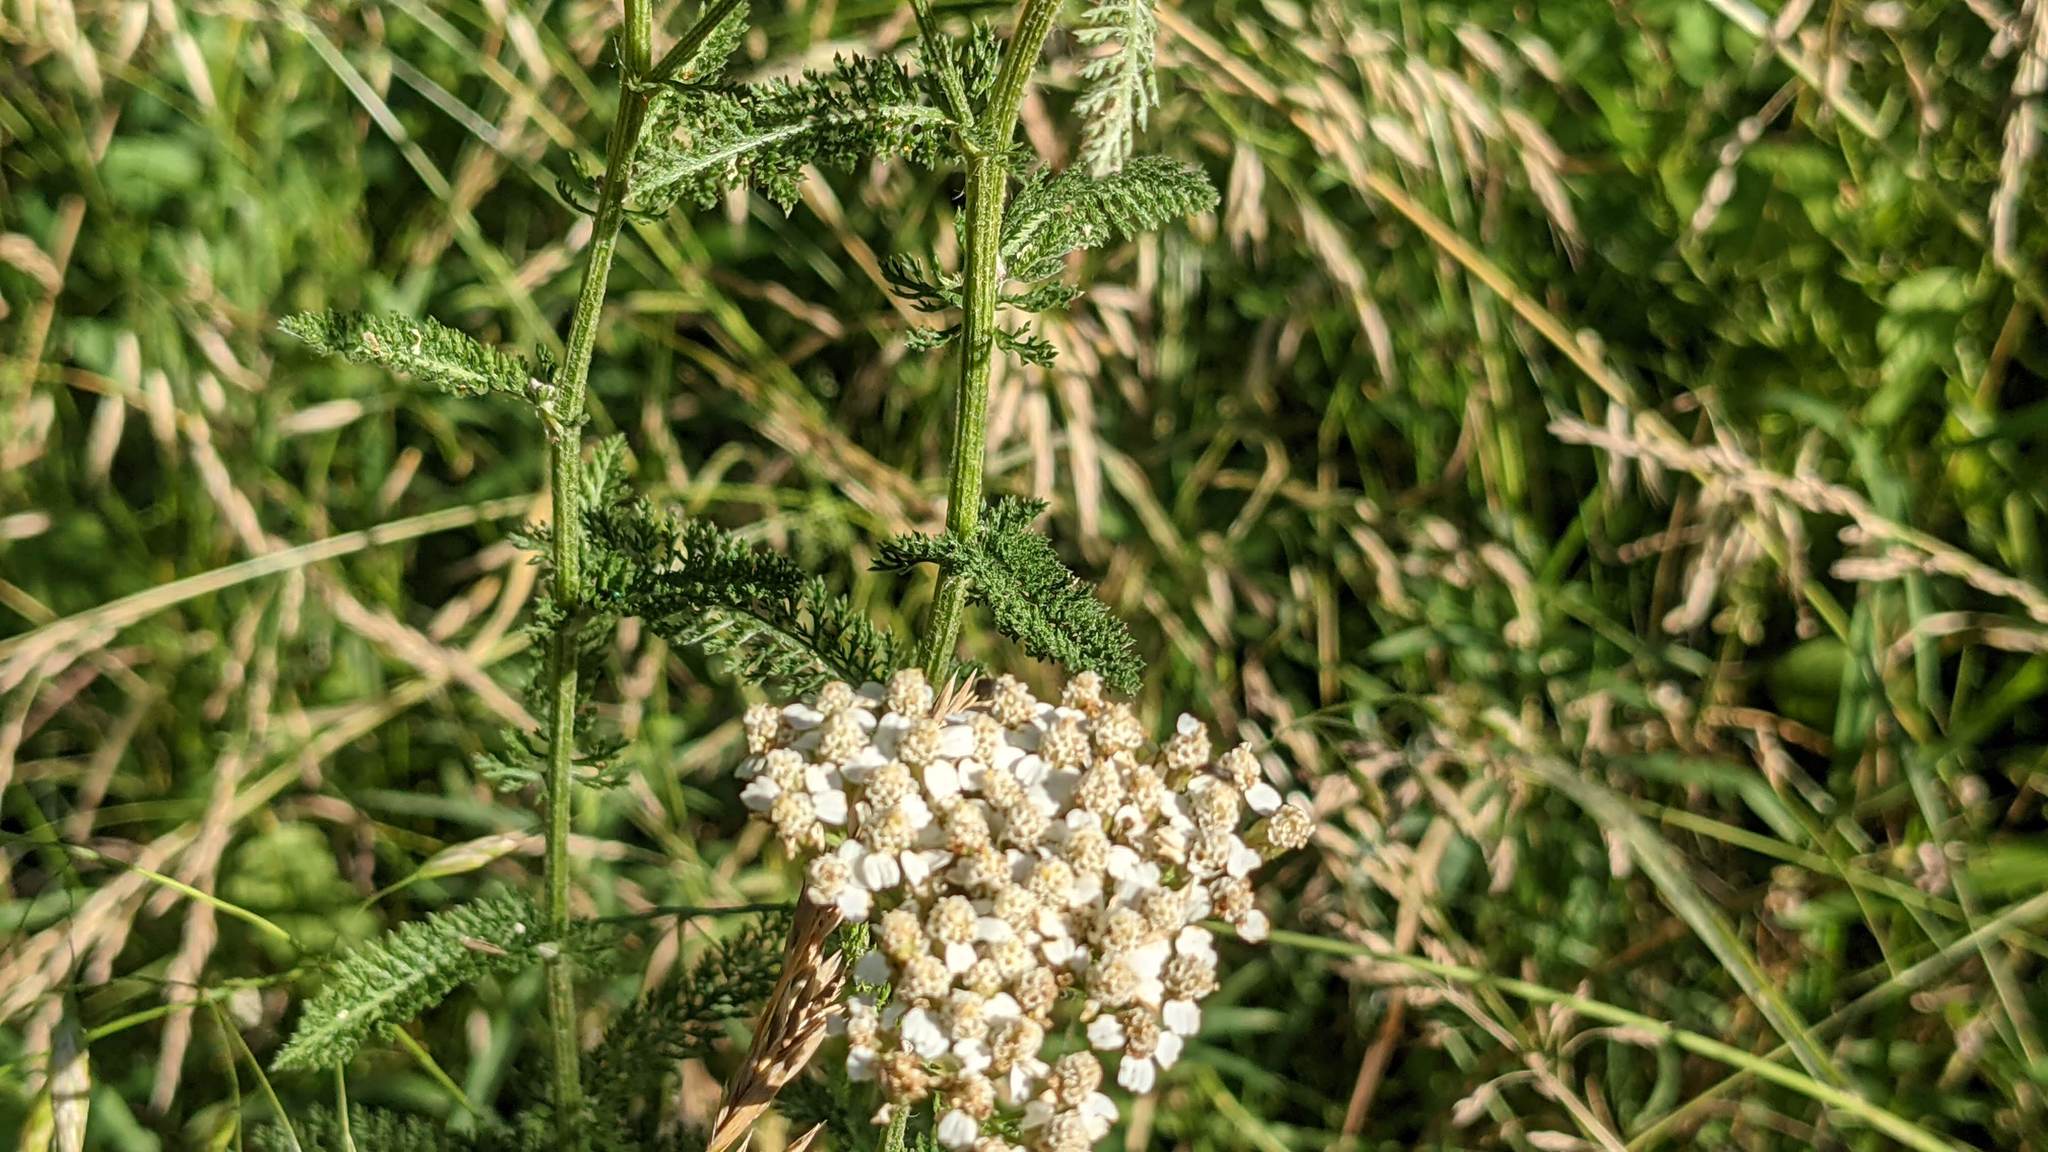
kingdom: Plantae
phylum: Tracheophyta
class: Magnoliopsida
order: Asterales
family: Asteraceae
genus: Achillea
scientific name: Achillea millefolium
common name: Yarrow
